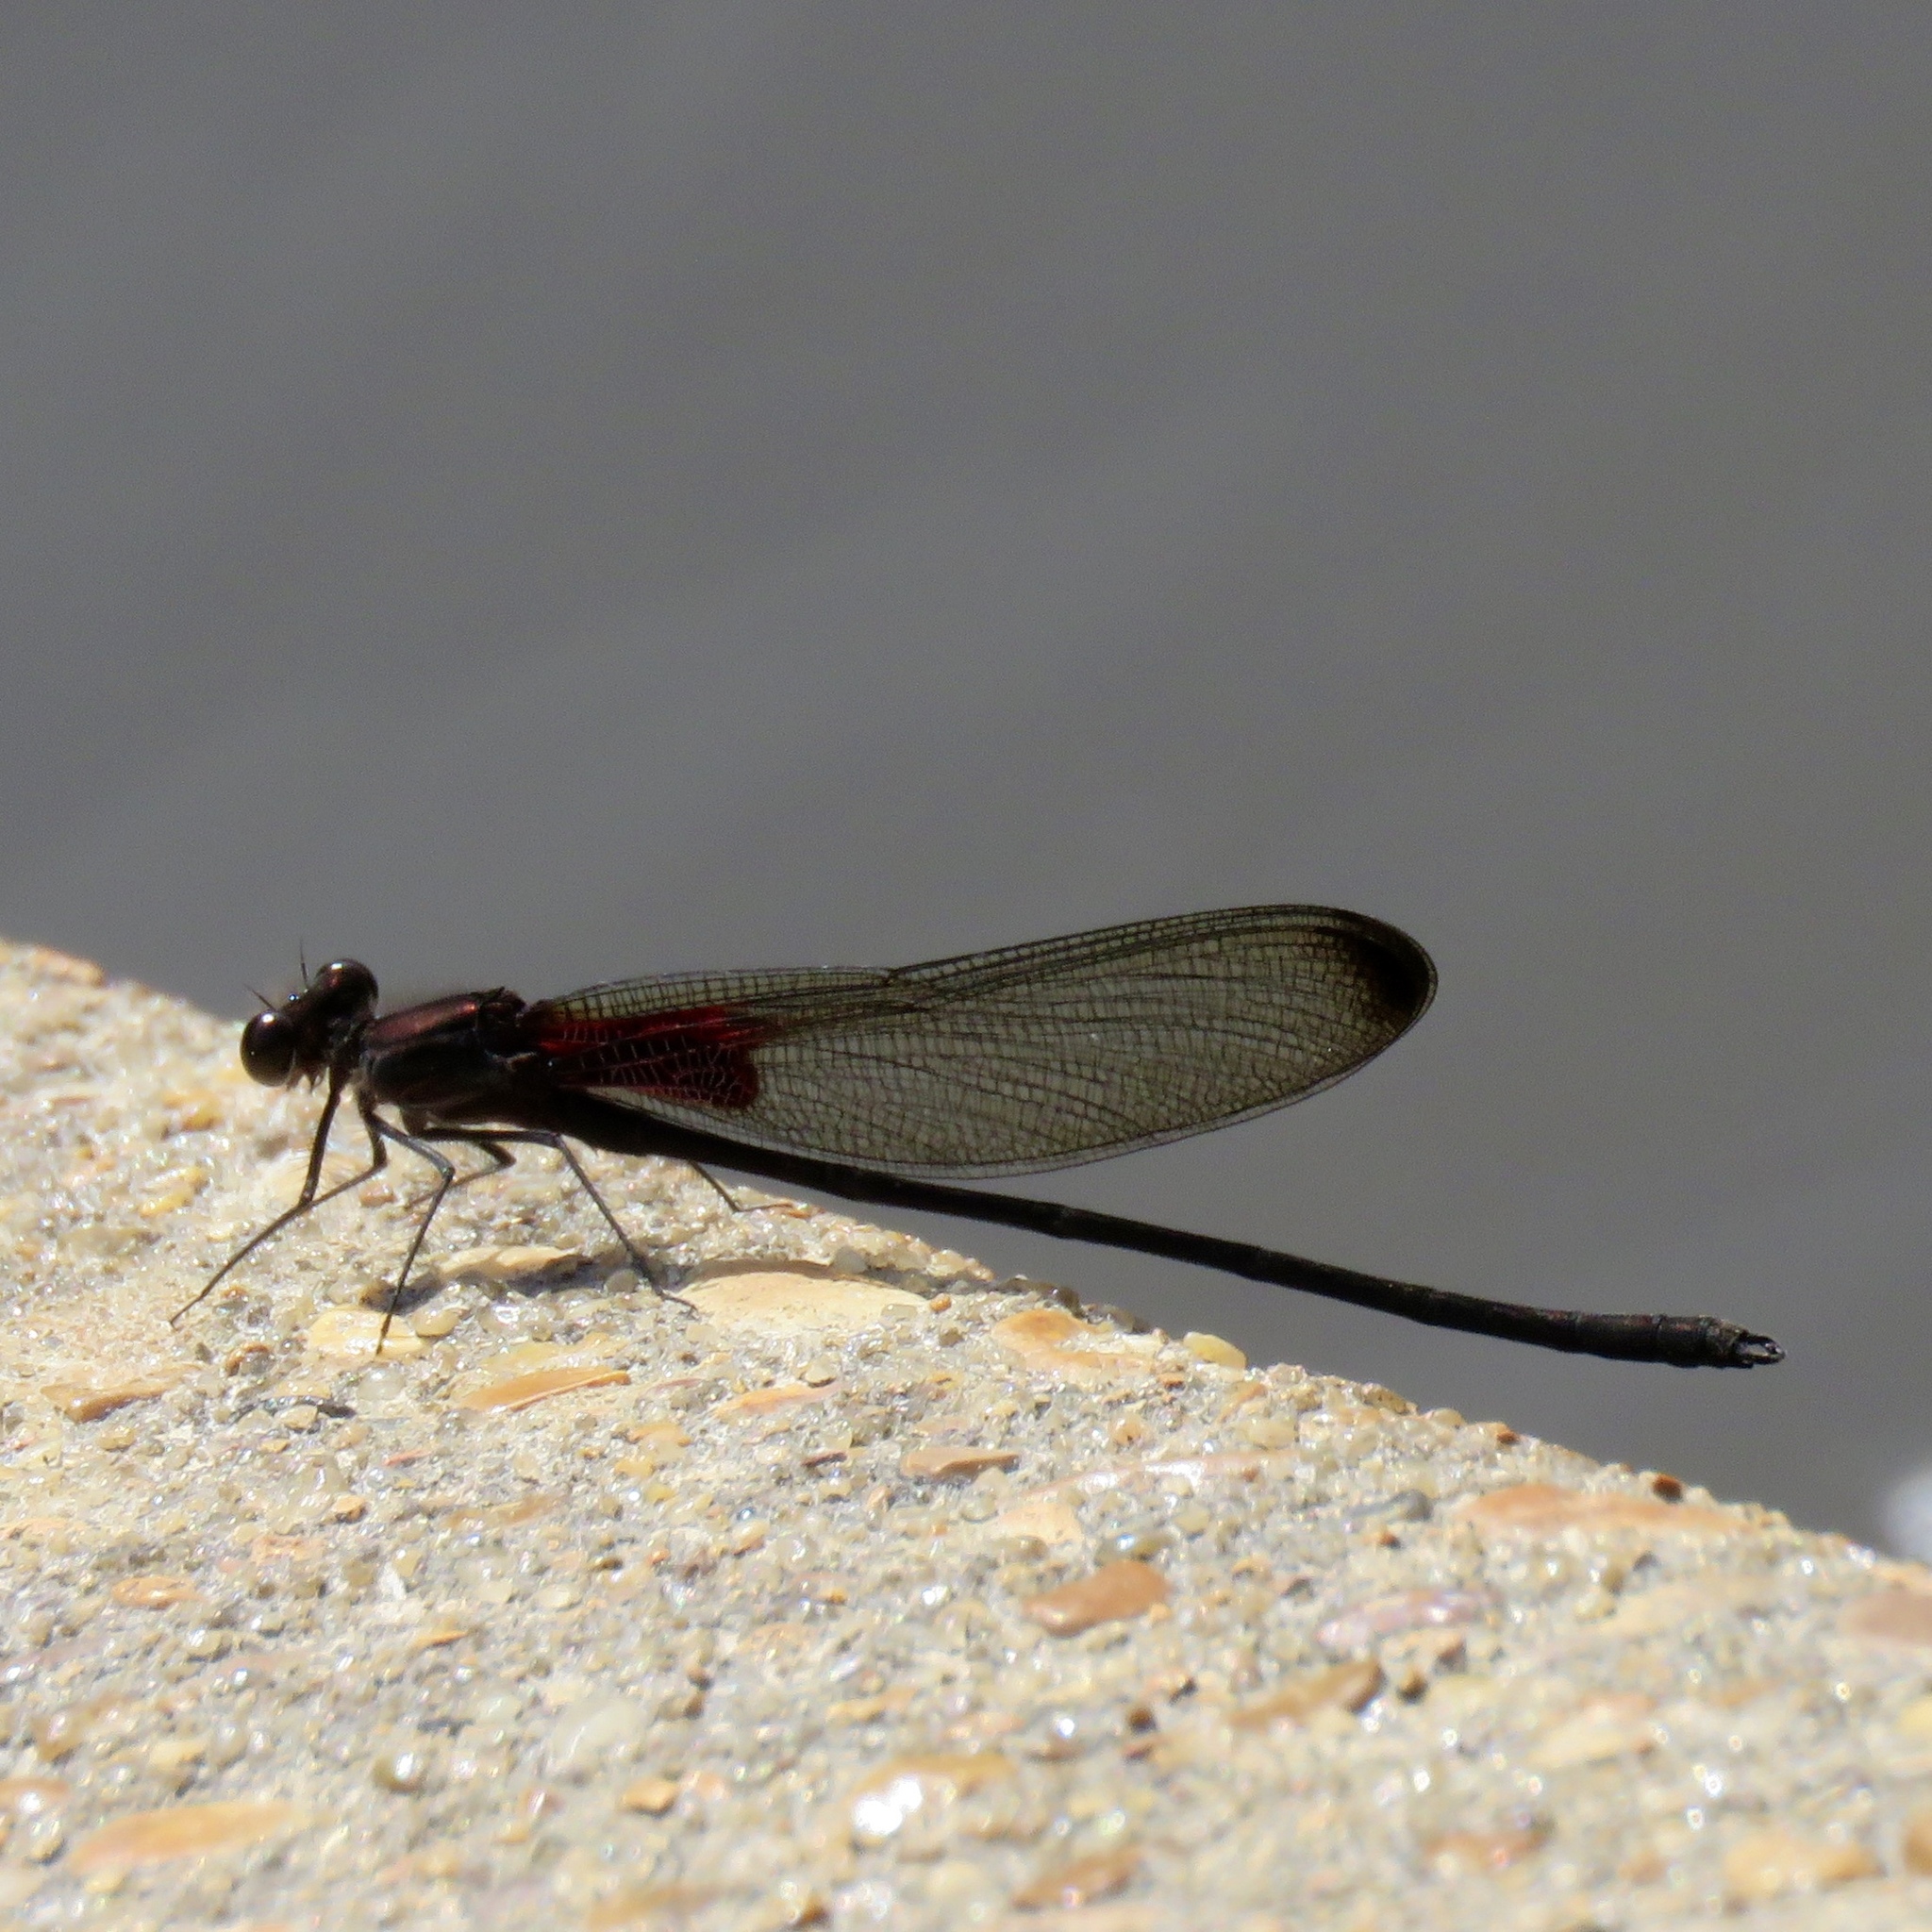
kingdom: Animalia
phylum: Arthropoda
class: Insecta
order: Odonata
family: Calopterygidae
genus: Hetaerina
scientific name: Hetaerina titia
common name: Smoky rubyspot
